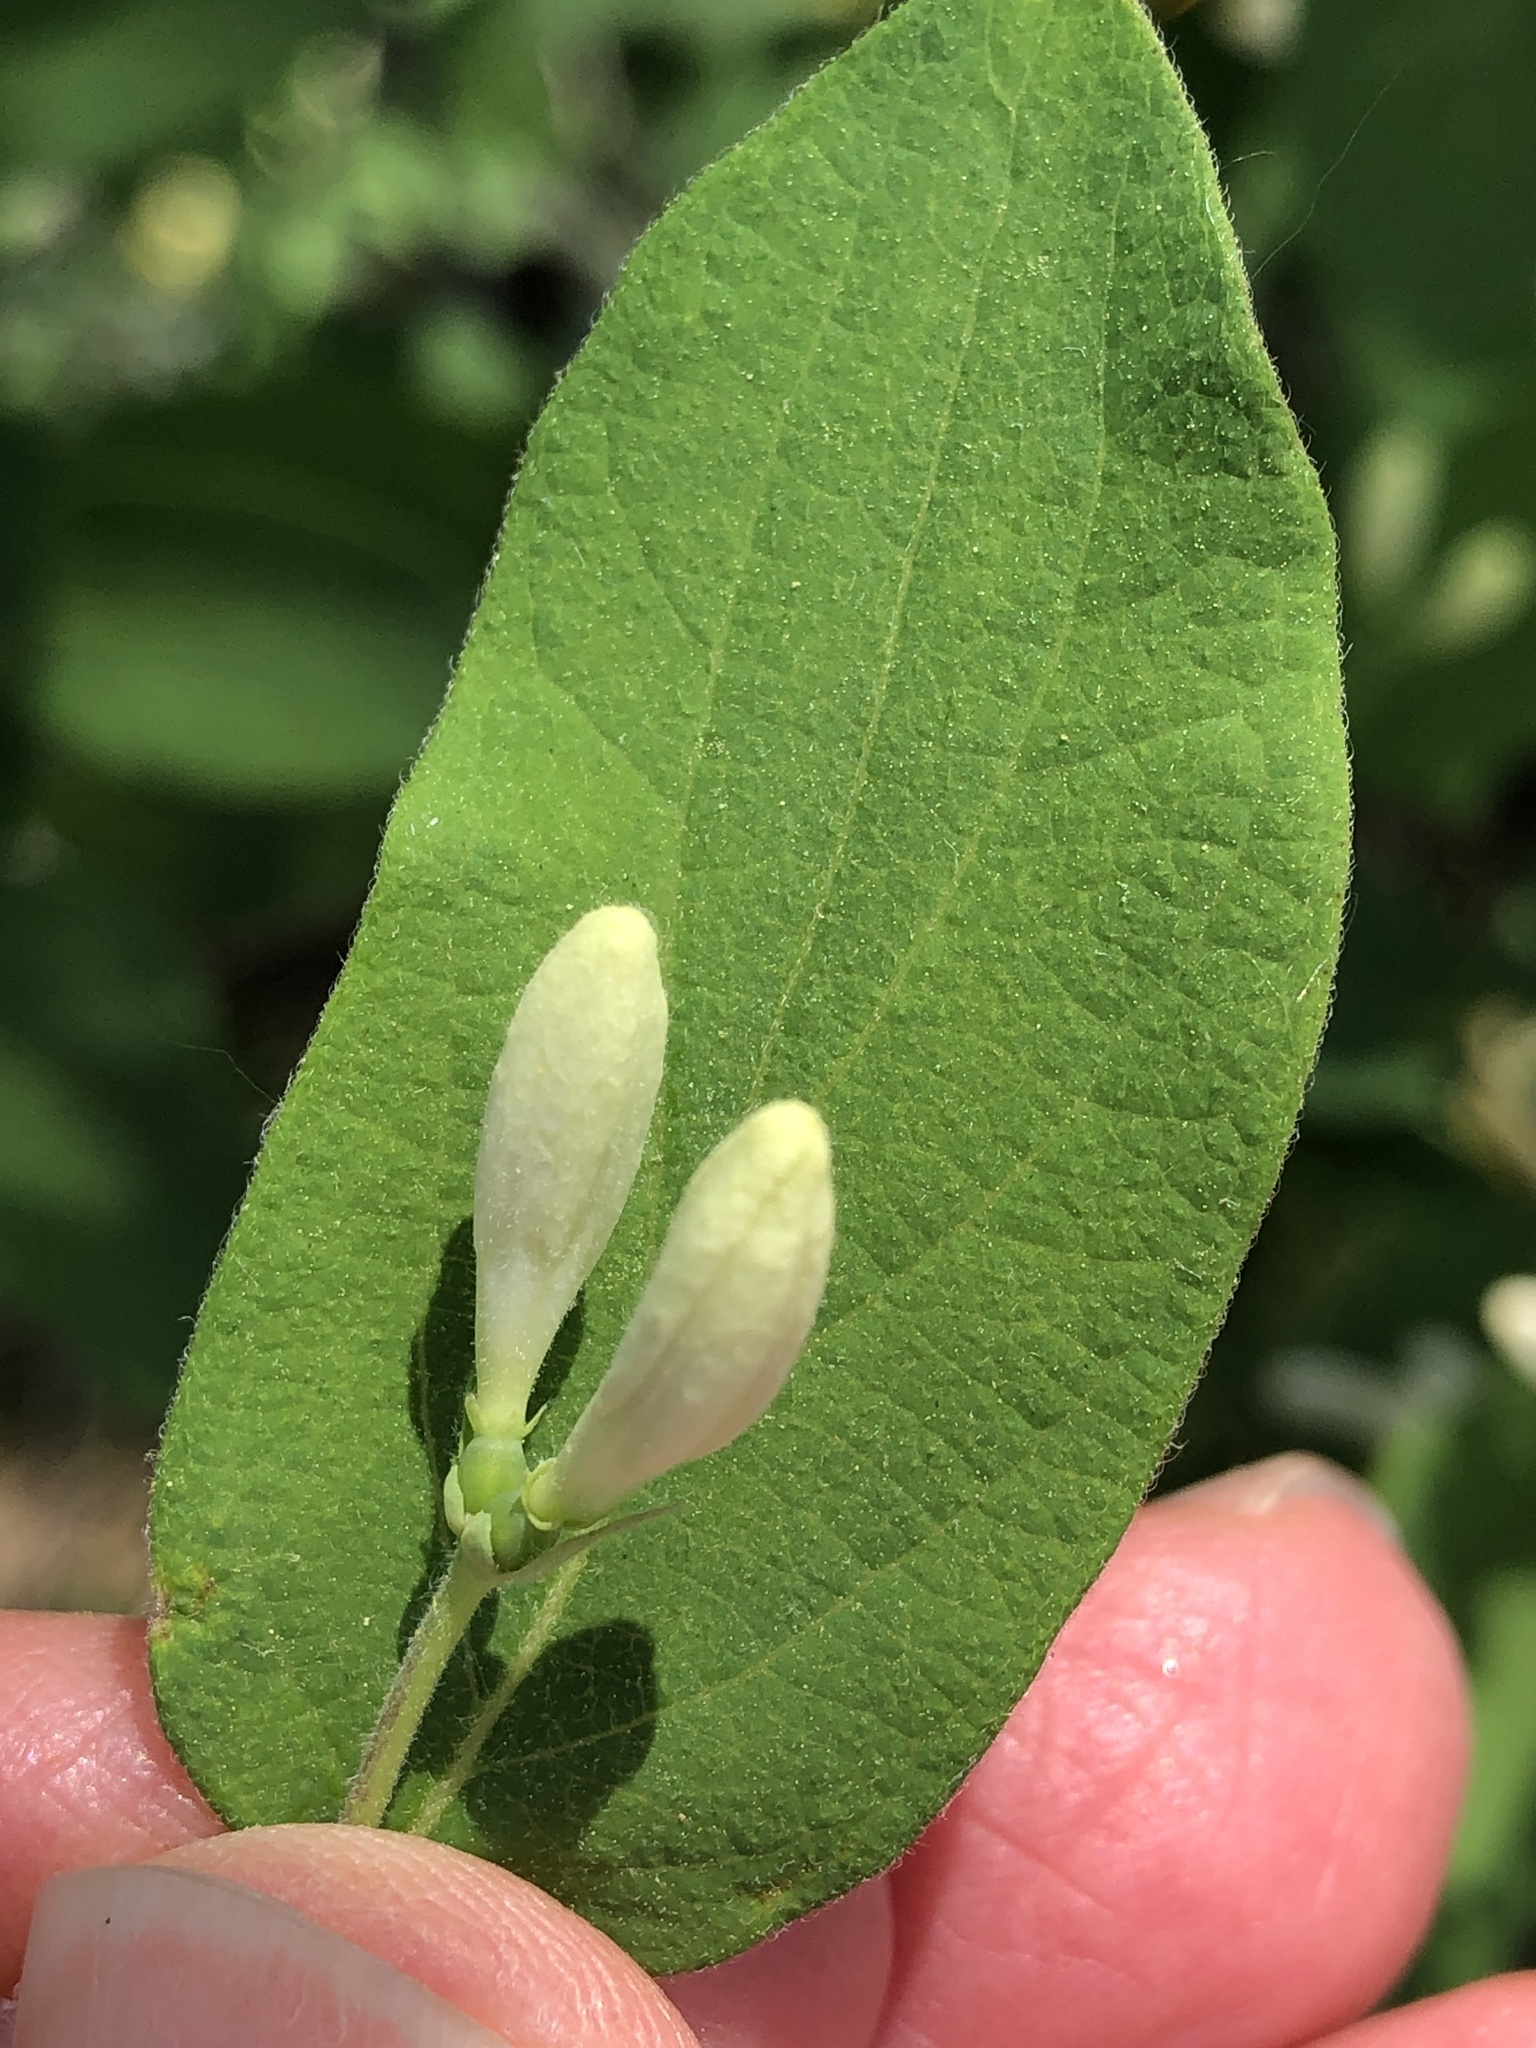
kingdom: Plantae
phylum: Tracheophyta
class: Magnoliopsida
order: Dipsacales
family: Caprifoliaceae
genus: Lonicera
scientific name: Lonicera morrowii
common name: Morrow's honeysuckle
